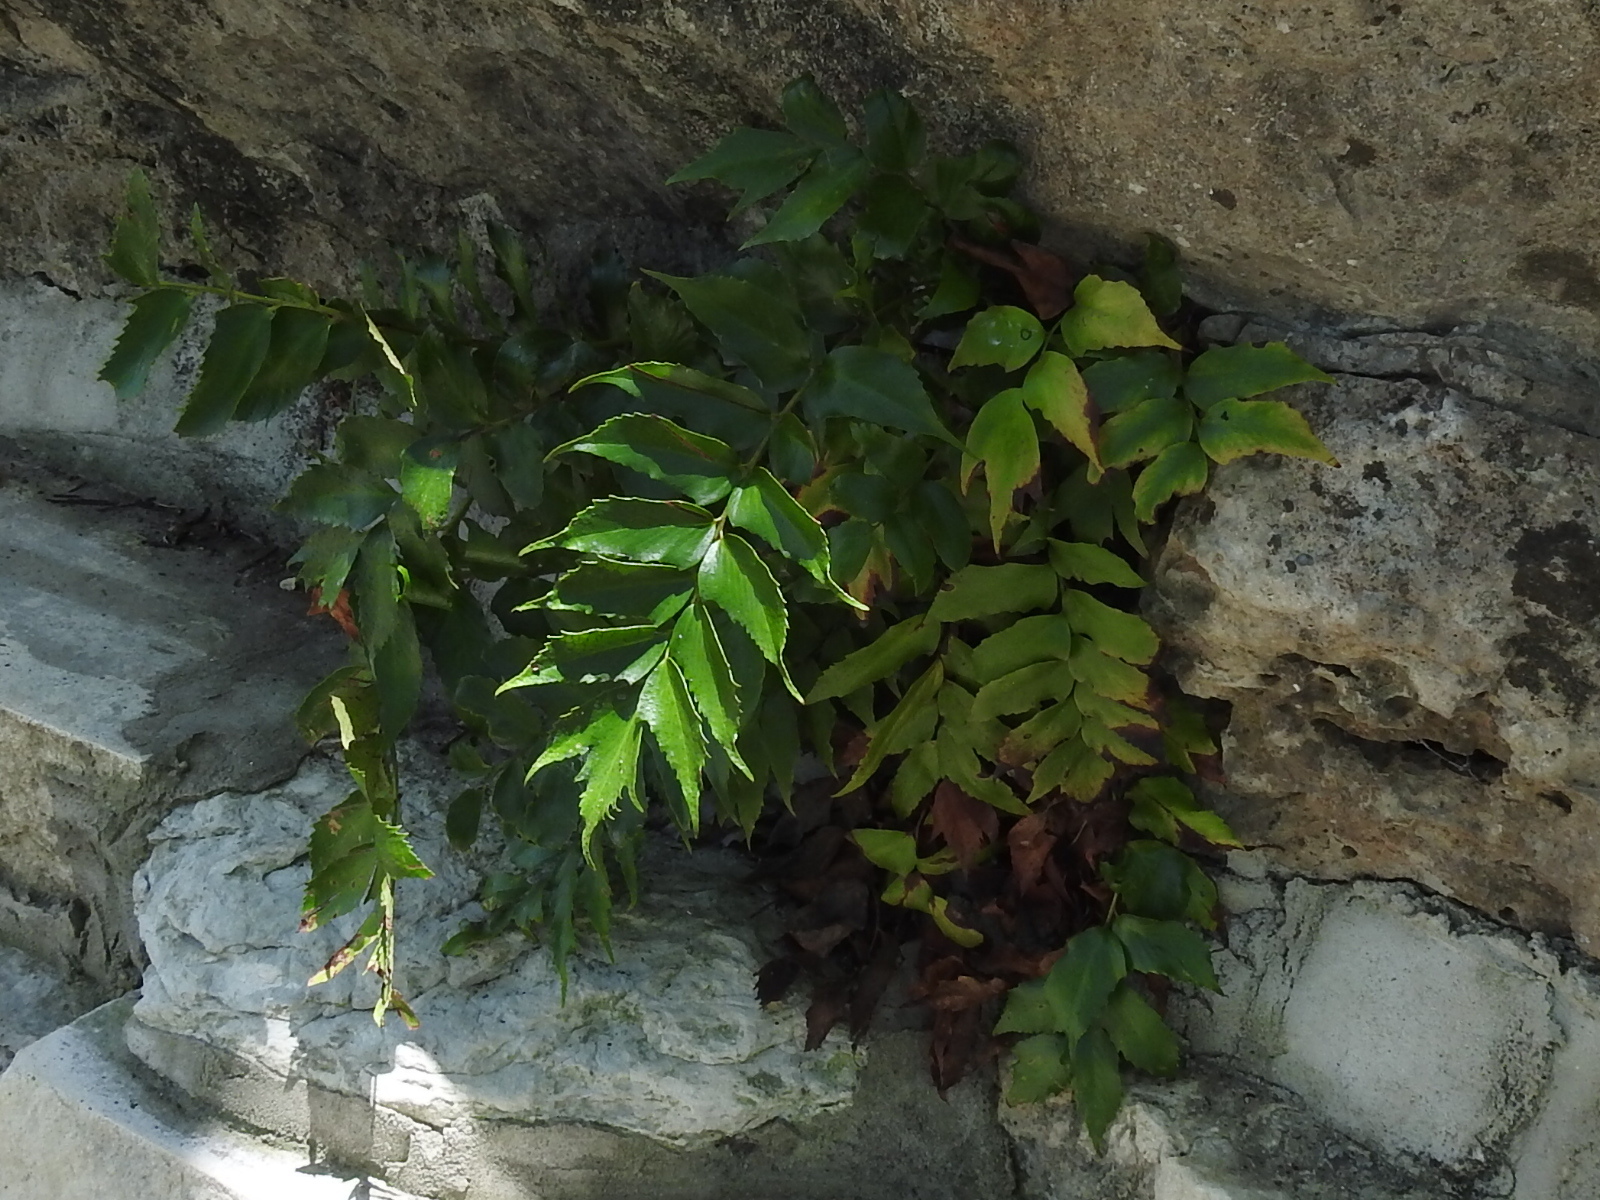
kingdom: Plantae
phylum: Tracheophyta
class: Polypodiopsida
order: Polypodiales
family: Dryopteridaceae
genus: Cyrtomium
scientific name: Cyrtomium falcatum
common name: House holly-fern
